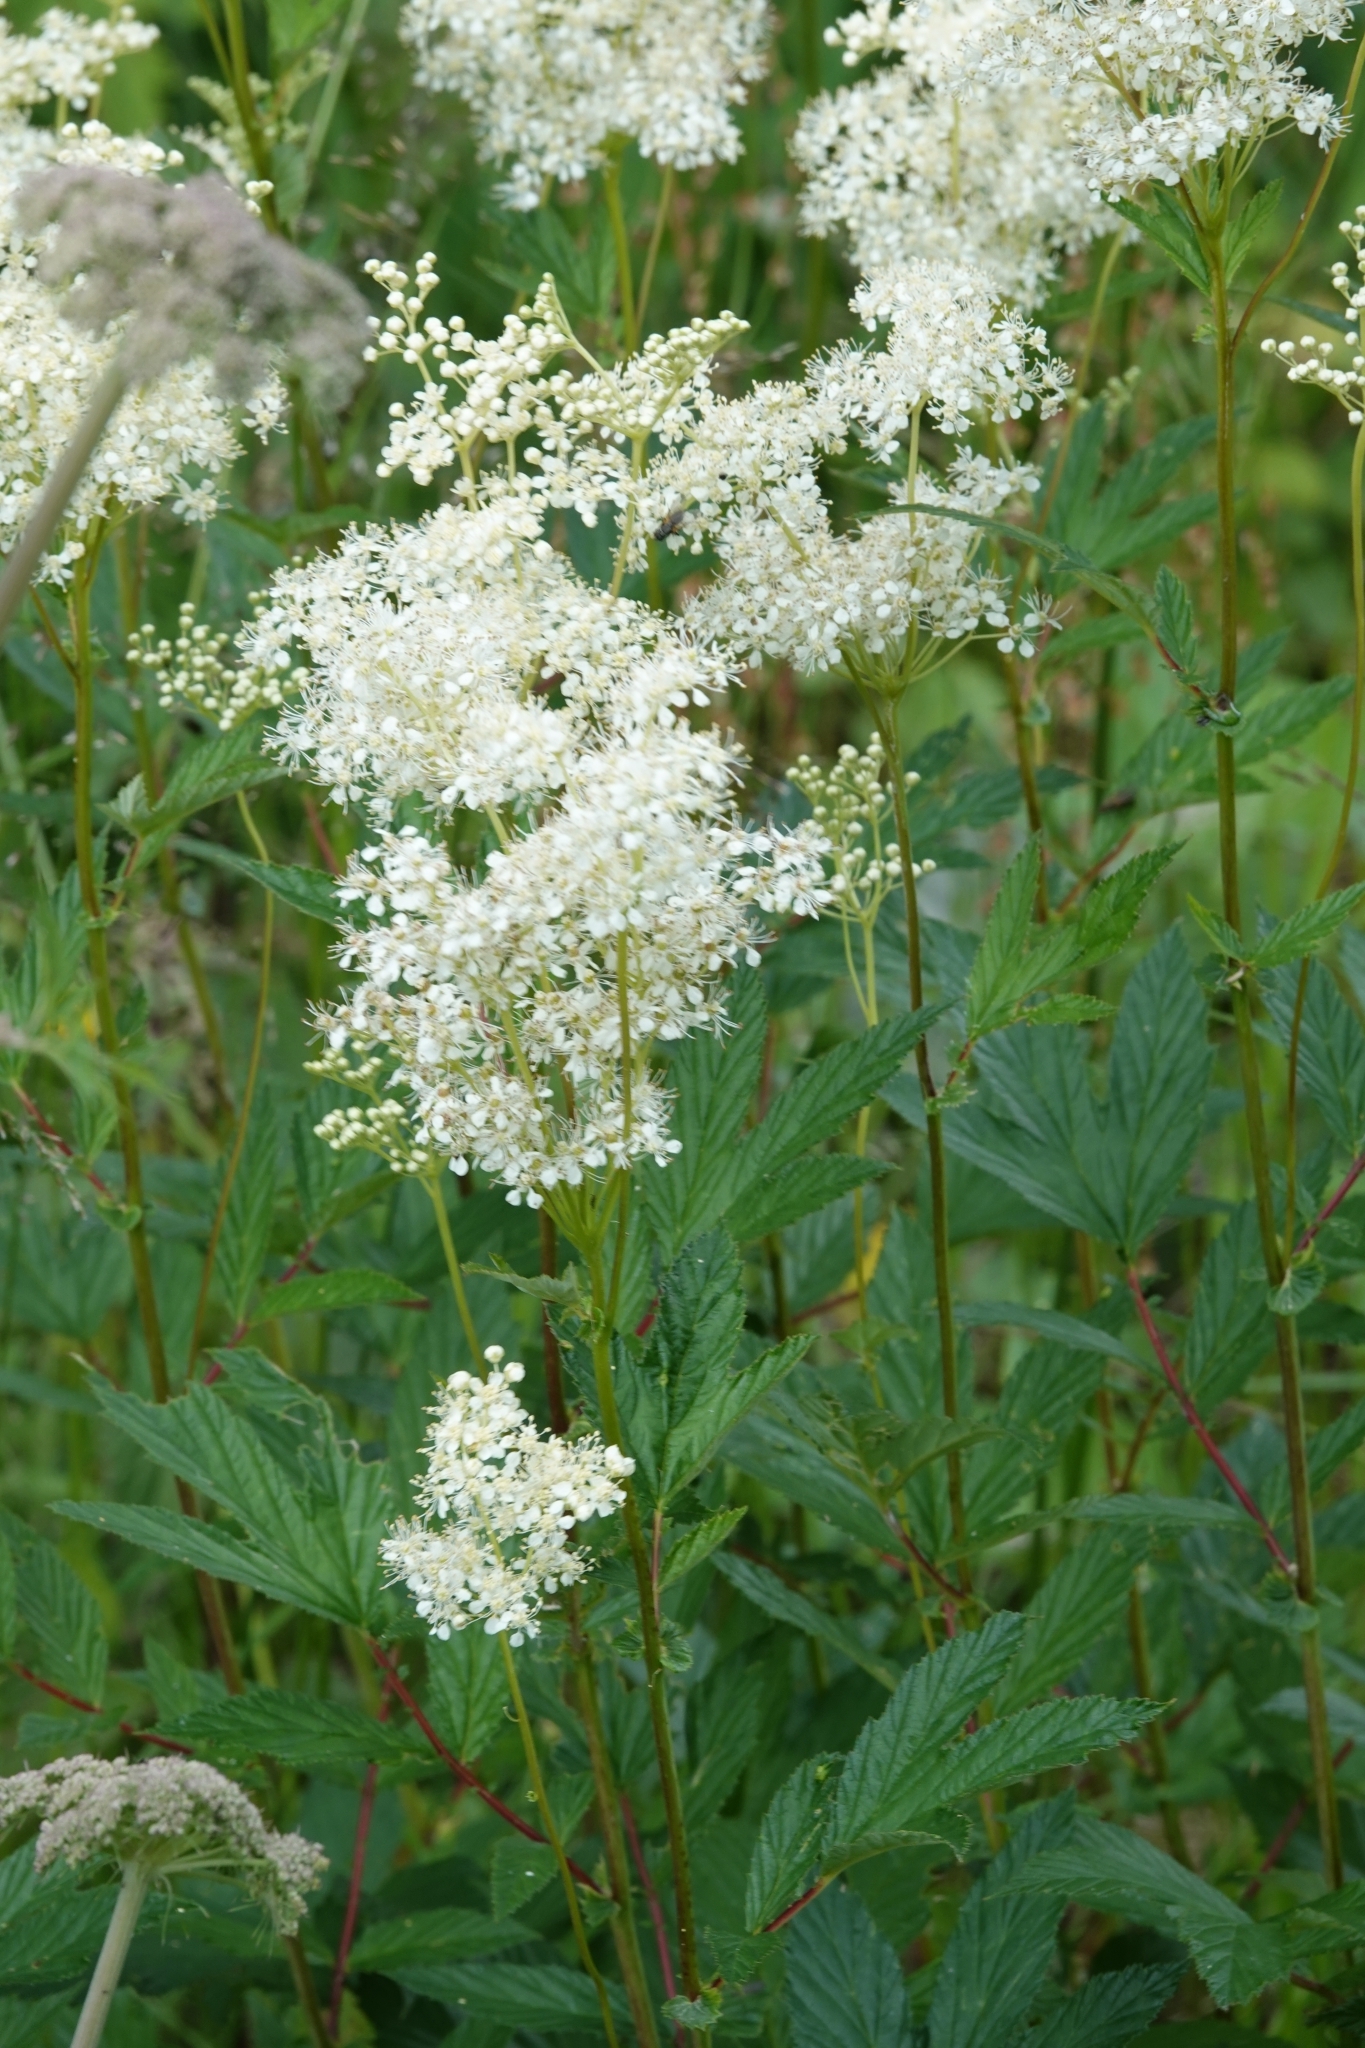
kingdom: Plantae
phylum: Tracheophyta
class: Magnoliopsida
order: Rosales
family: Rosaceae
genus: Filipendula
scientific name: Filipendula ulmaria
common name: Meadowsweet
